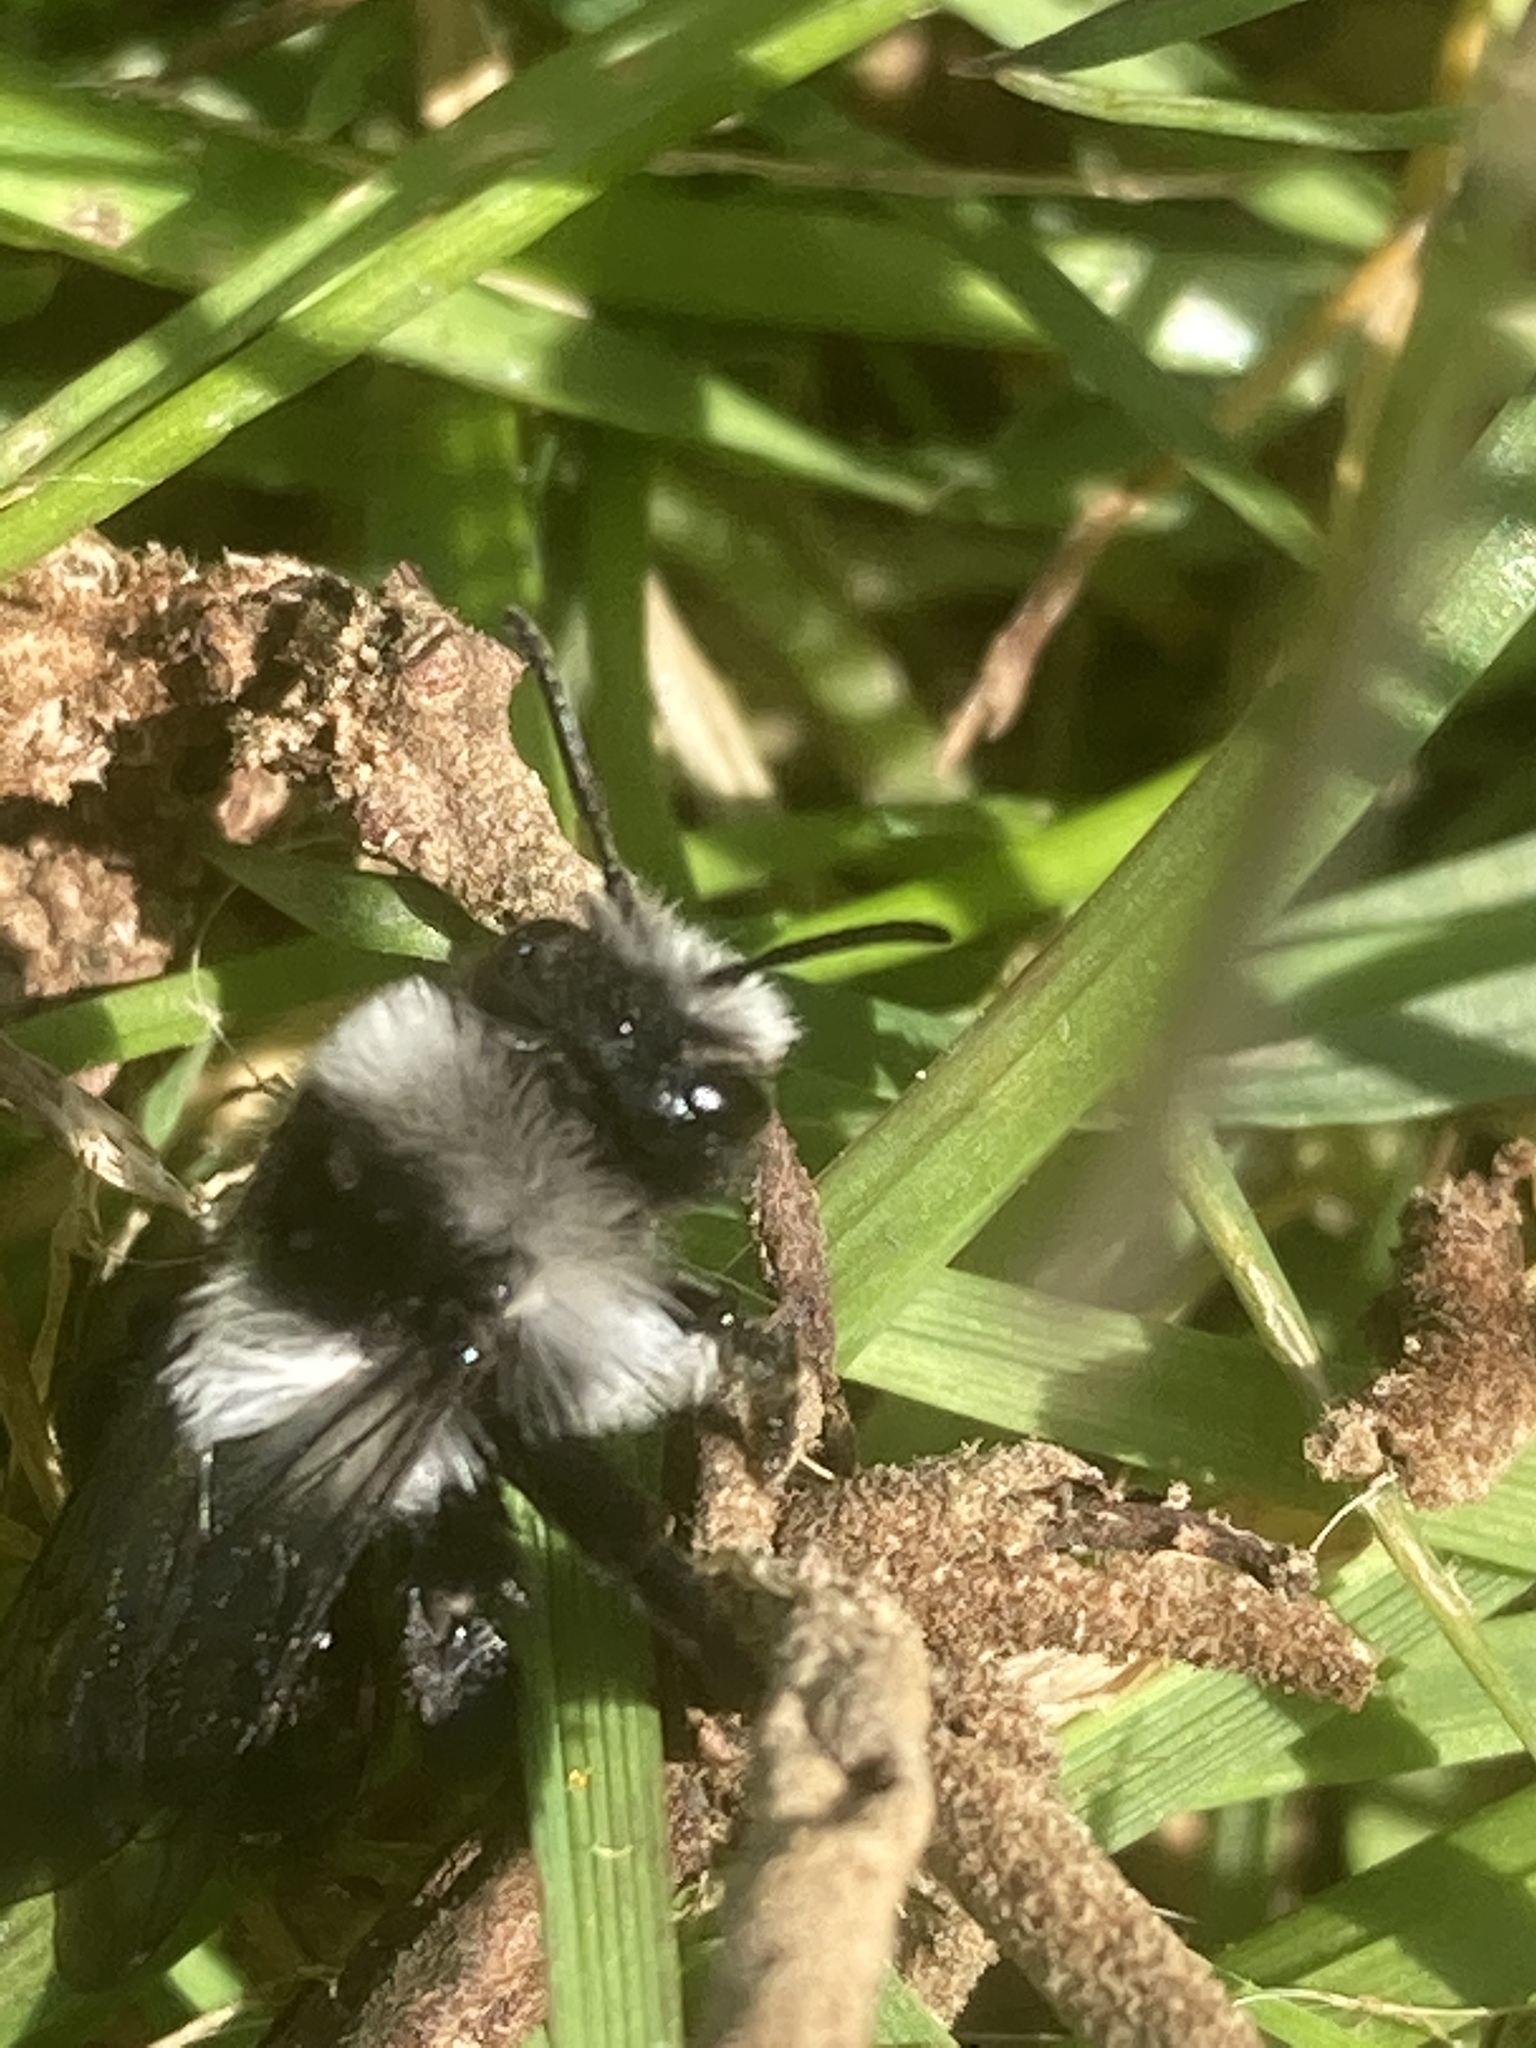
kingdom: Animalia
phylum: Arthropoda
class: Insecta
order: Hymenoptera
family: Andrenidae
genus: Andrena
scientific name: Andrena cineraria
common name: Ashy mining bee
